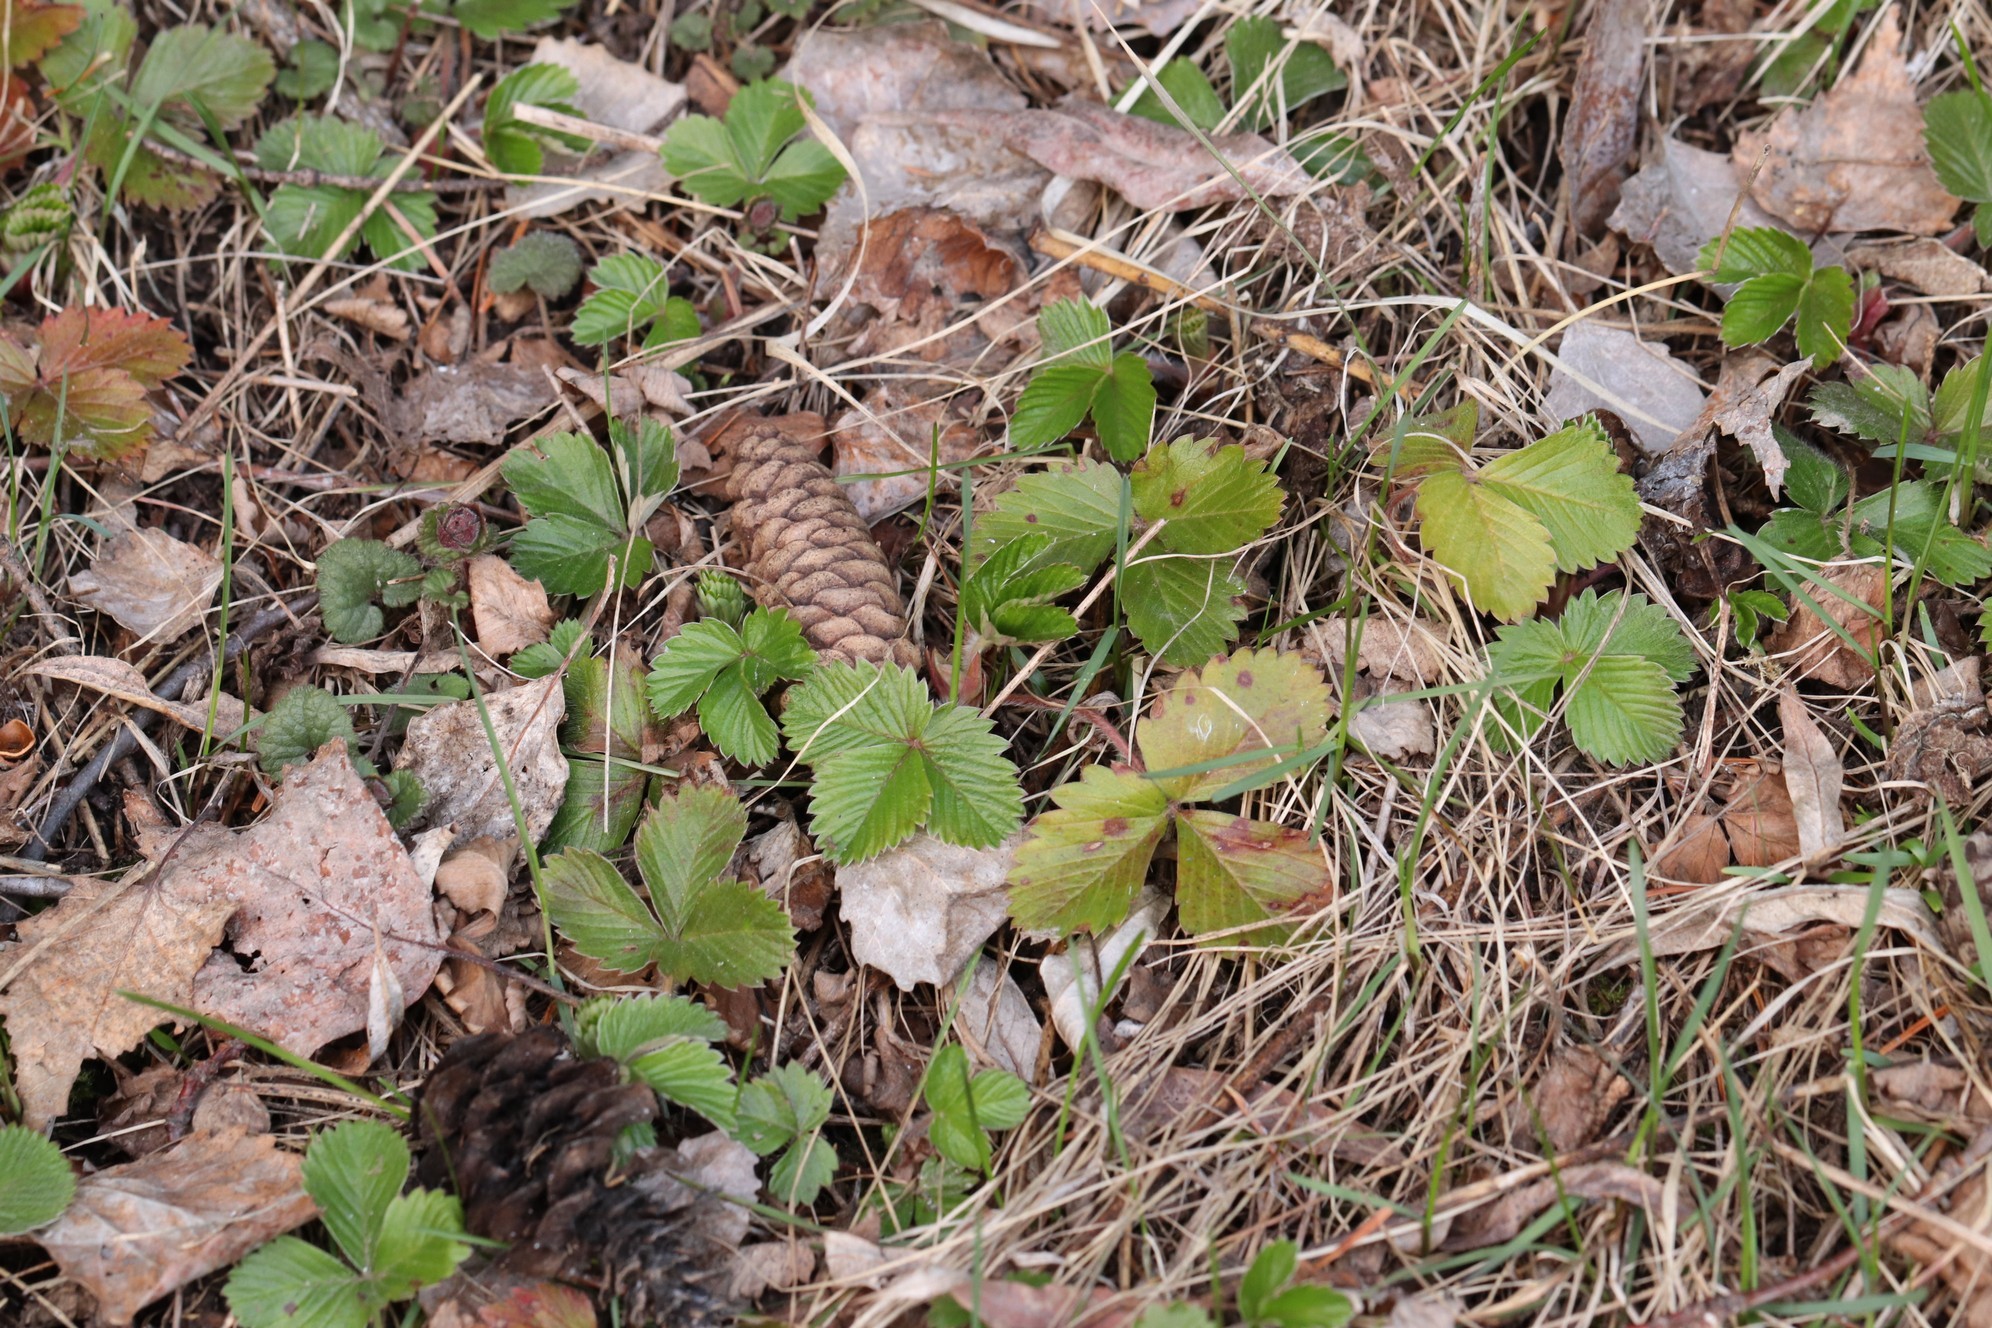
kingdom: Plantae
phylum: Tracheophyta
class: Magnoliopsida
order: Rosales
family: Rosaceae
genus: Fragaria
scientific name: Fragaria vesca
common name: Wild strawberry
